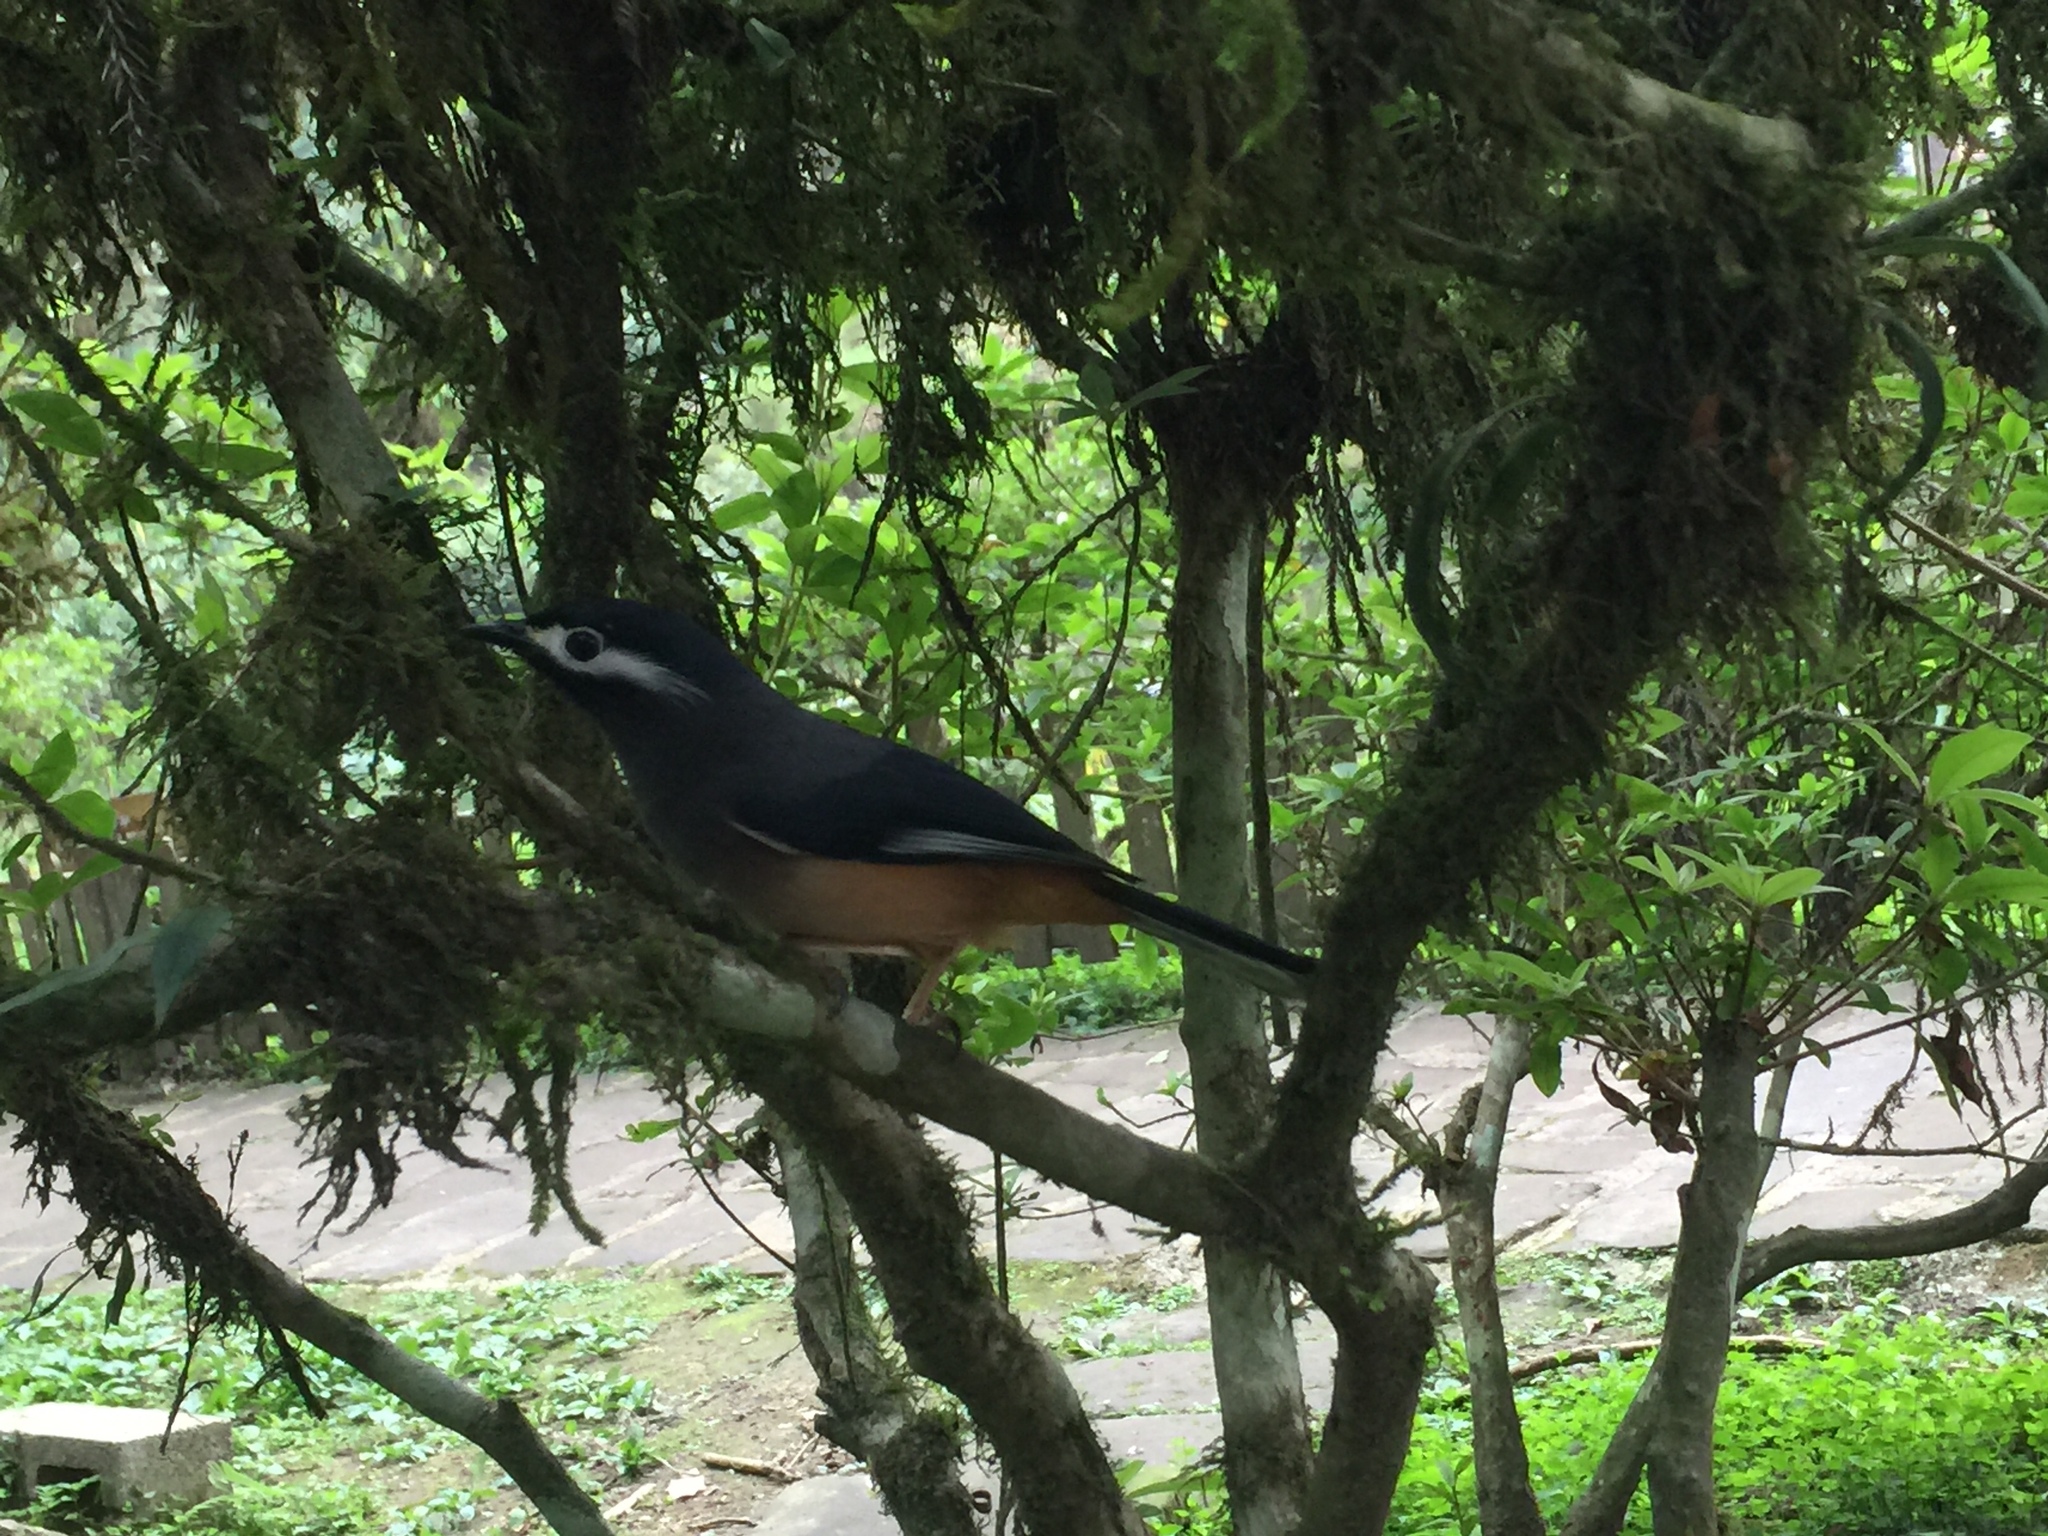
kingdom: Animalia
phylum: Chordata
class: Aves
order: Passeriformes
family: Leiothrichidae
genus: Heterophasia
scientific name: Heterophasia auricularis
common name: White-eared sibia
